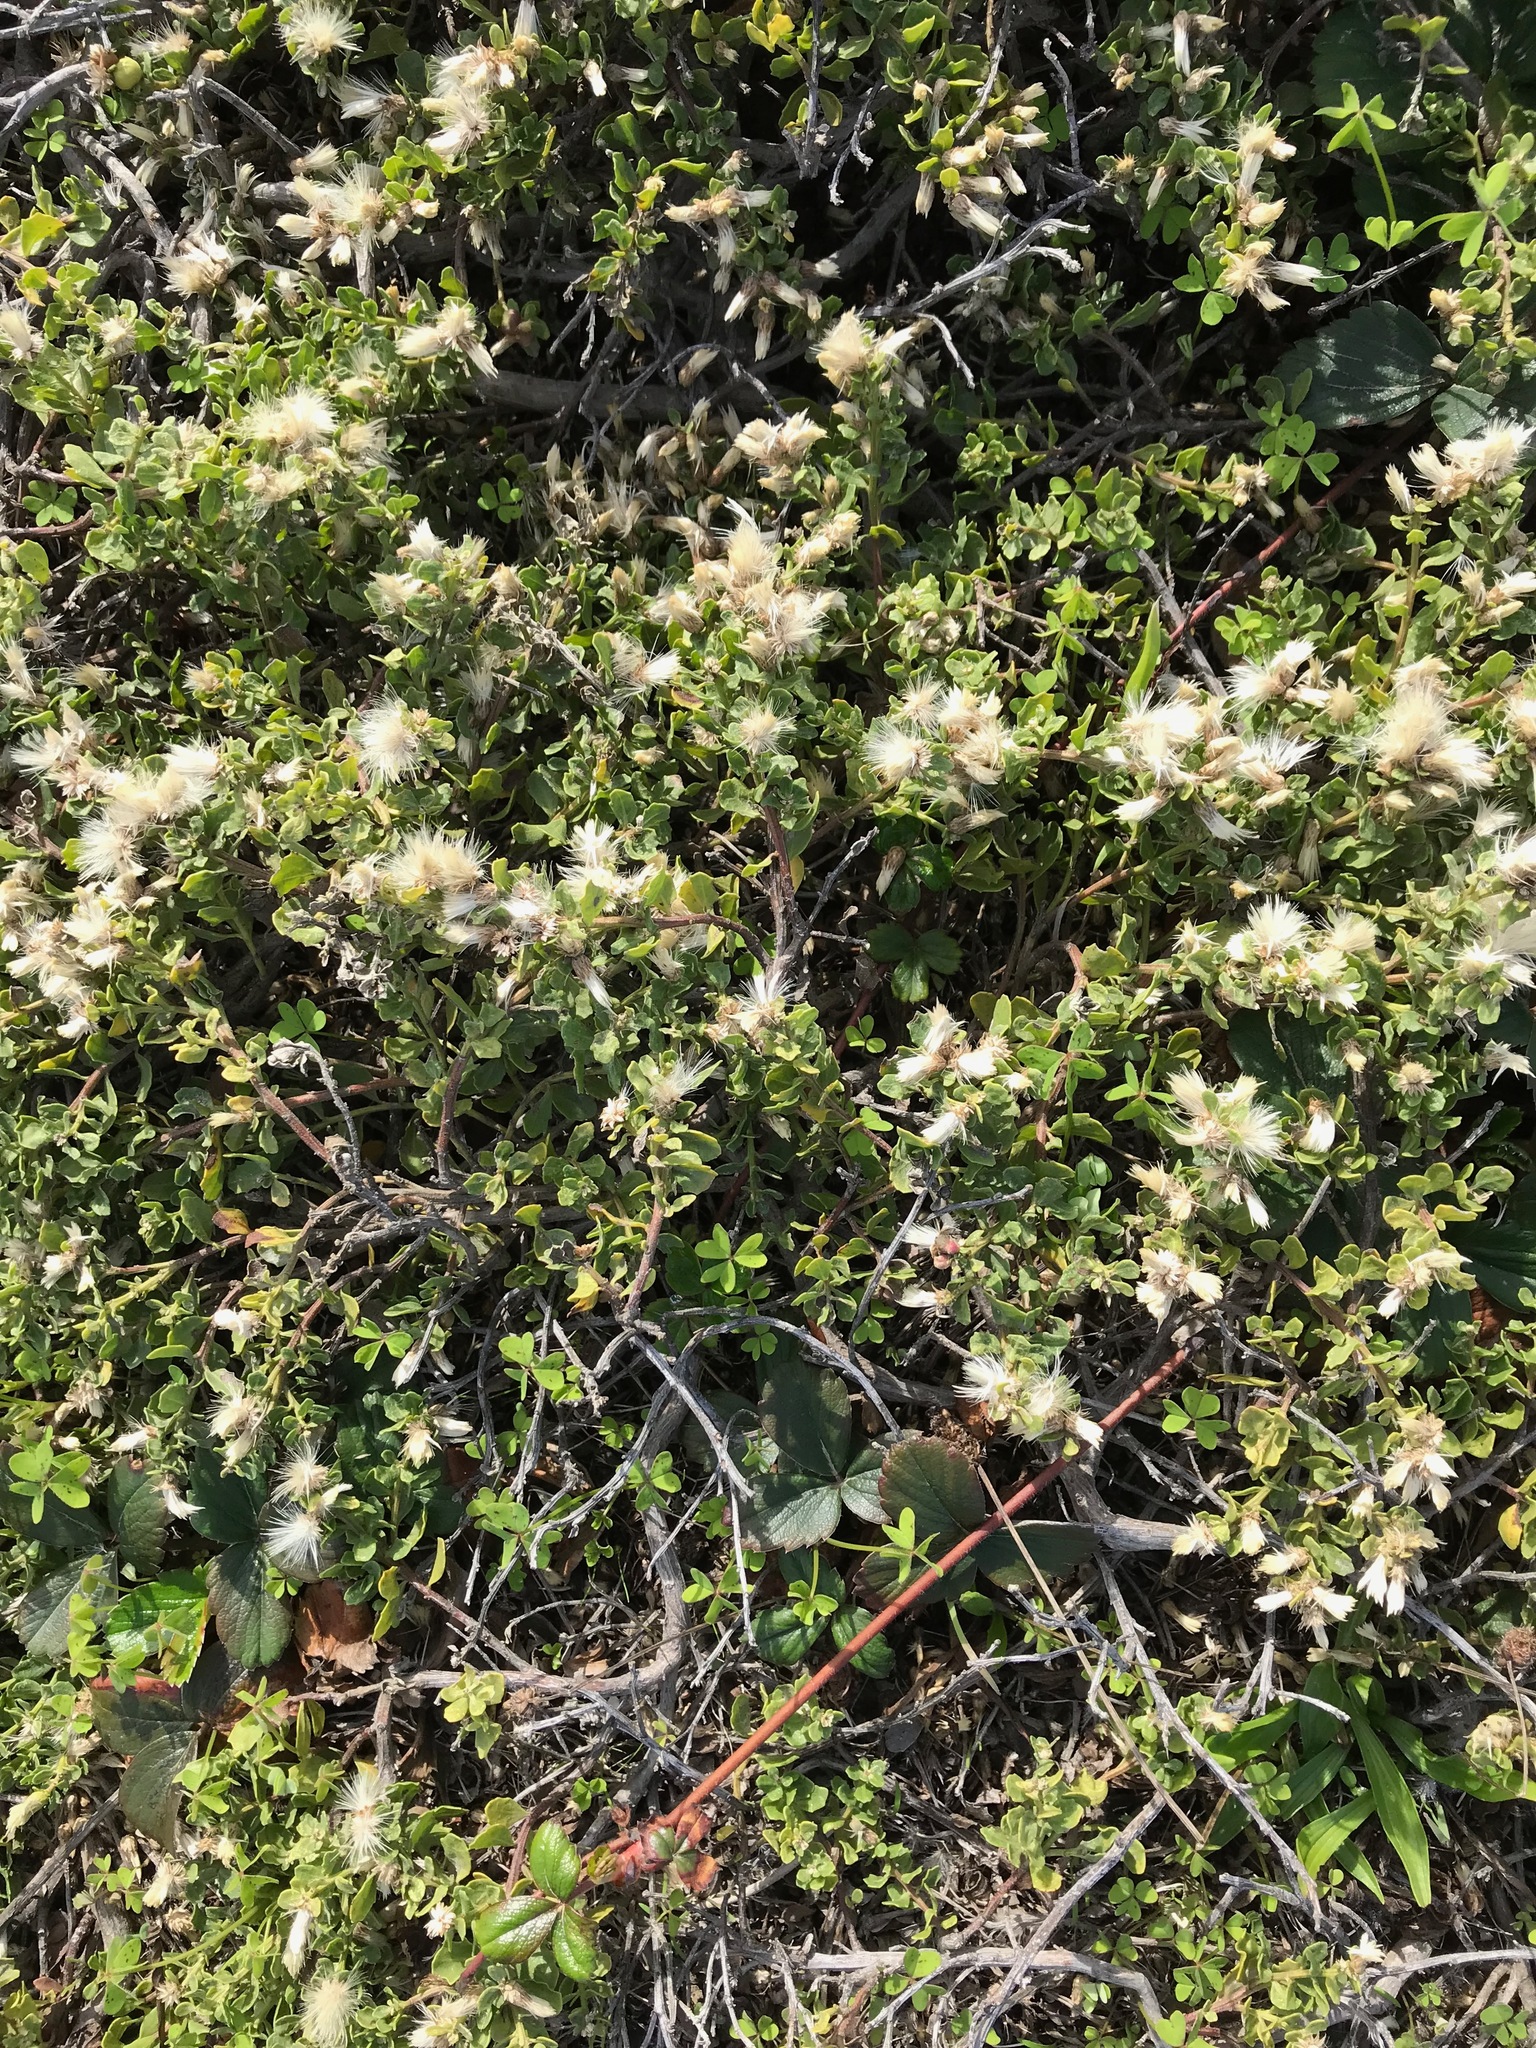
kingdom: Plantae
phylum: Tracheophyta
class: Magnoliopsida
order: Asterales
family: Asteraceae
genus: Baccharis
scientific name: Baccharis pilularis
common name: Coyotebrush
